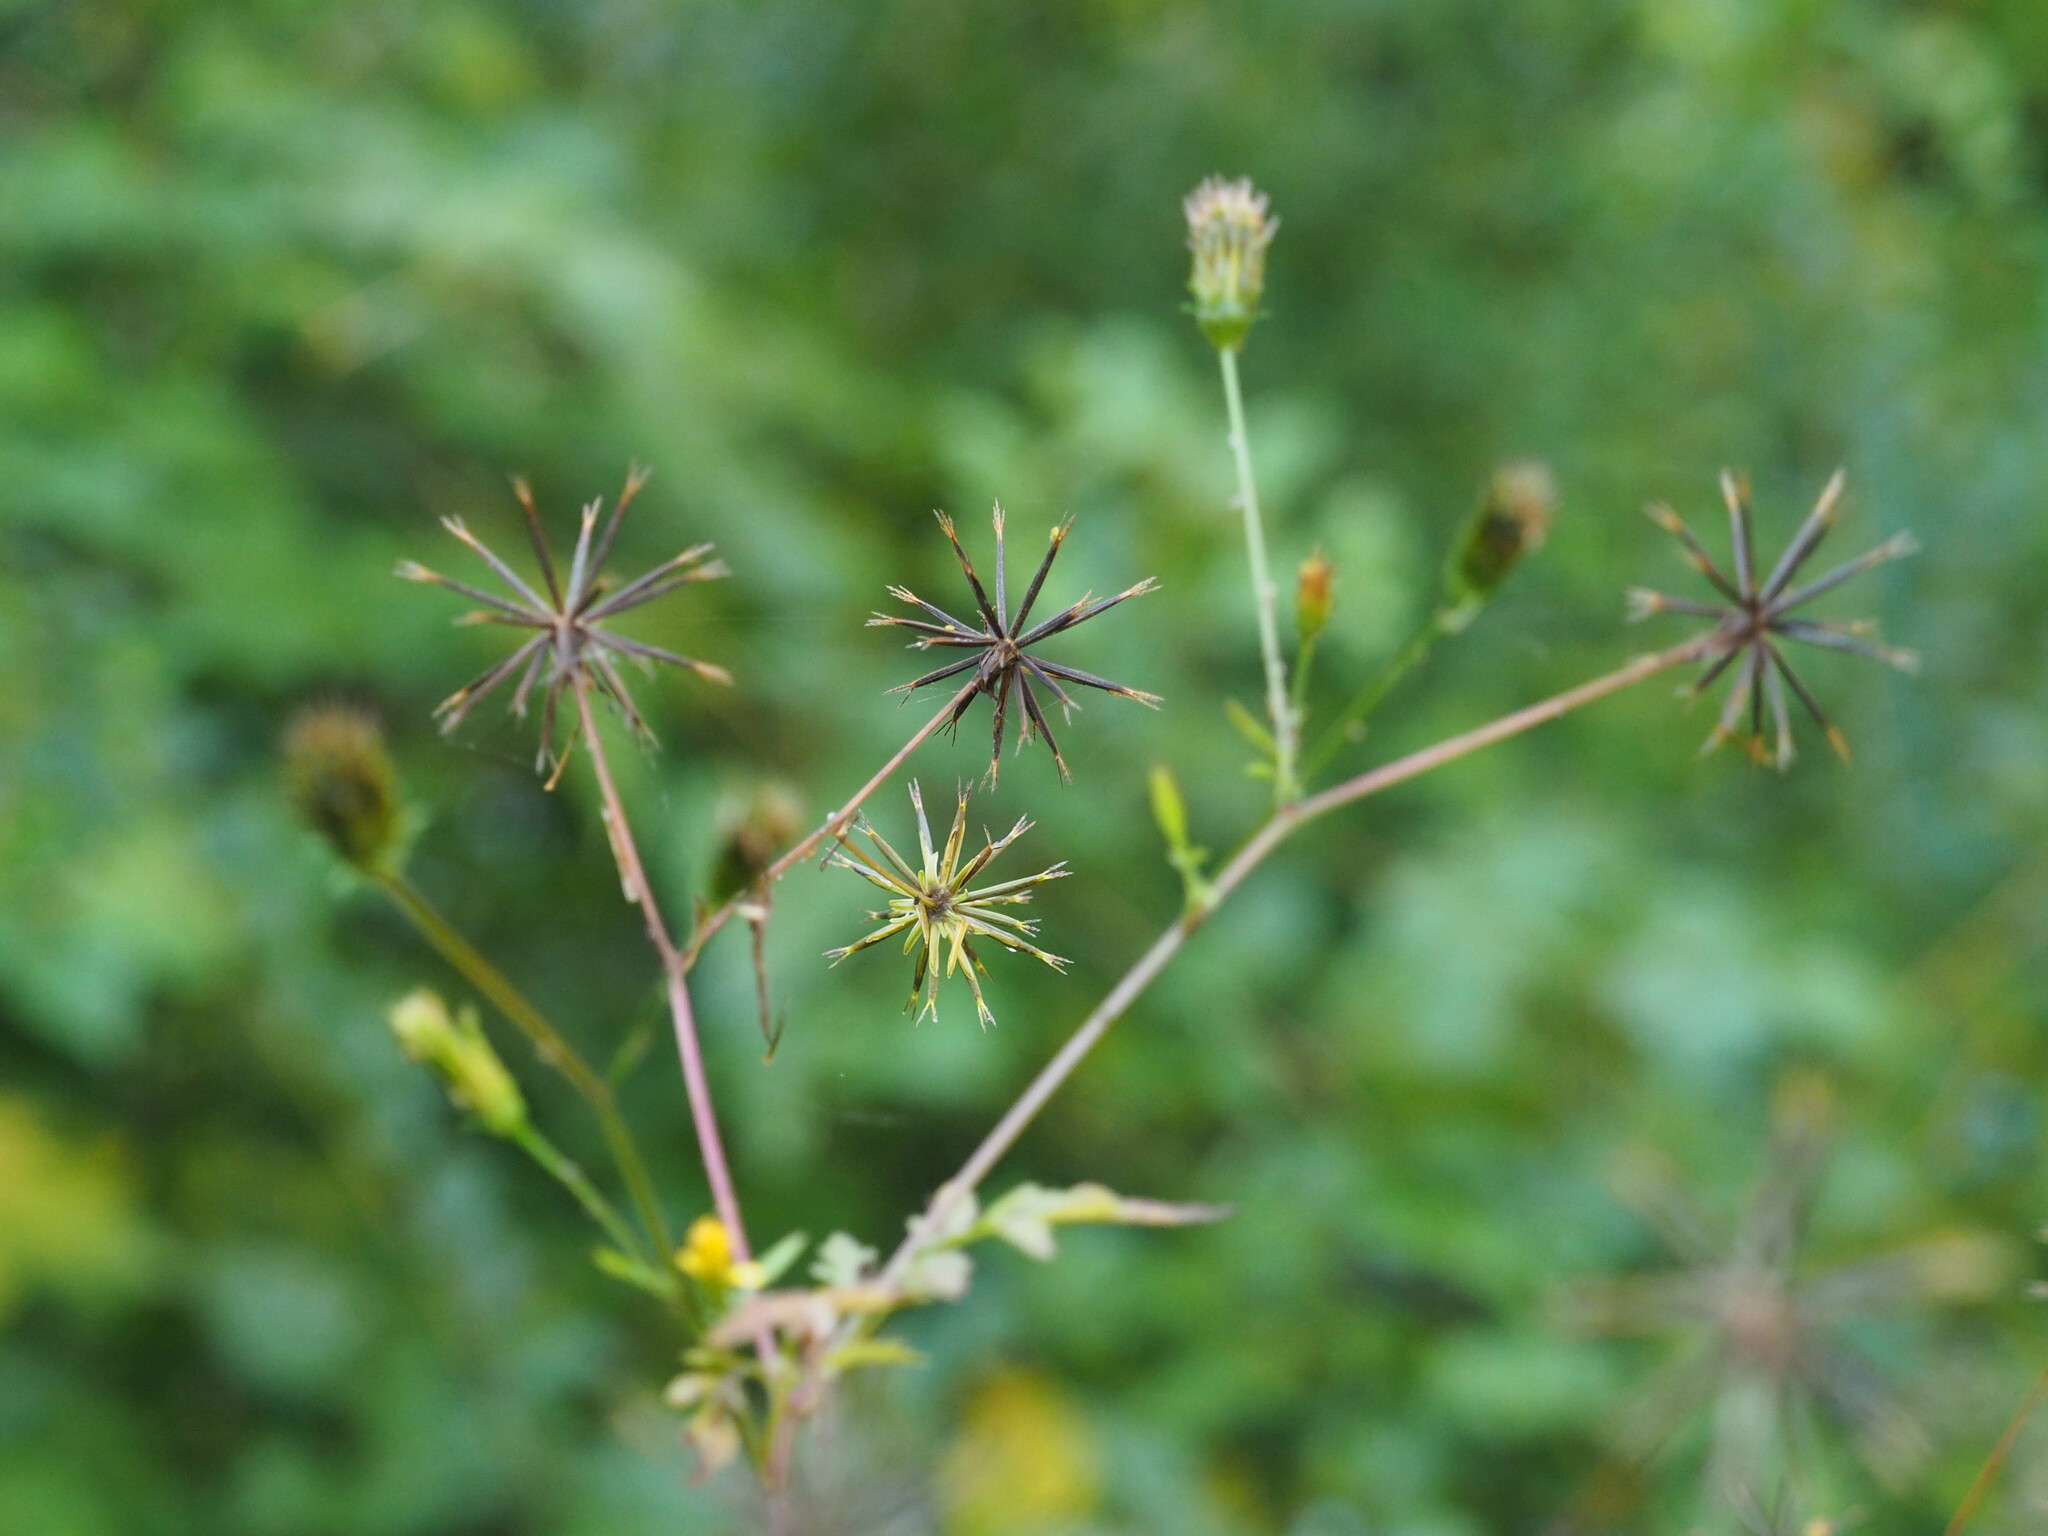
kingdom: Plantae
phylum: Tracheophyta
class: Magnoliopsida
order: Asterales
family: Asteraceae
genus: Bidens
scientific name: Bidens bipinnata
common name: Spanish-needles
